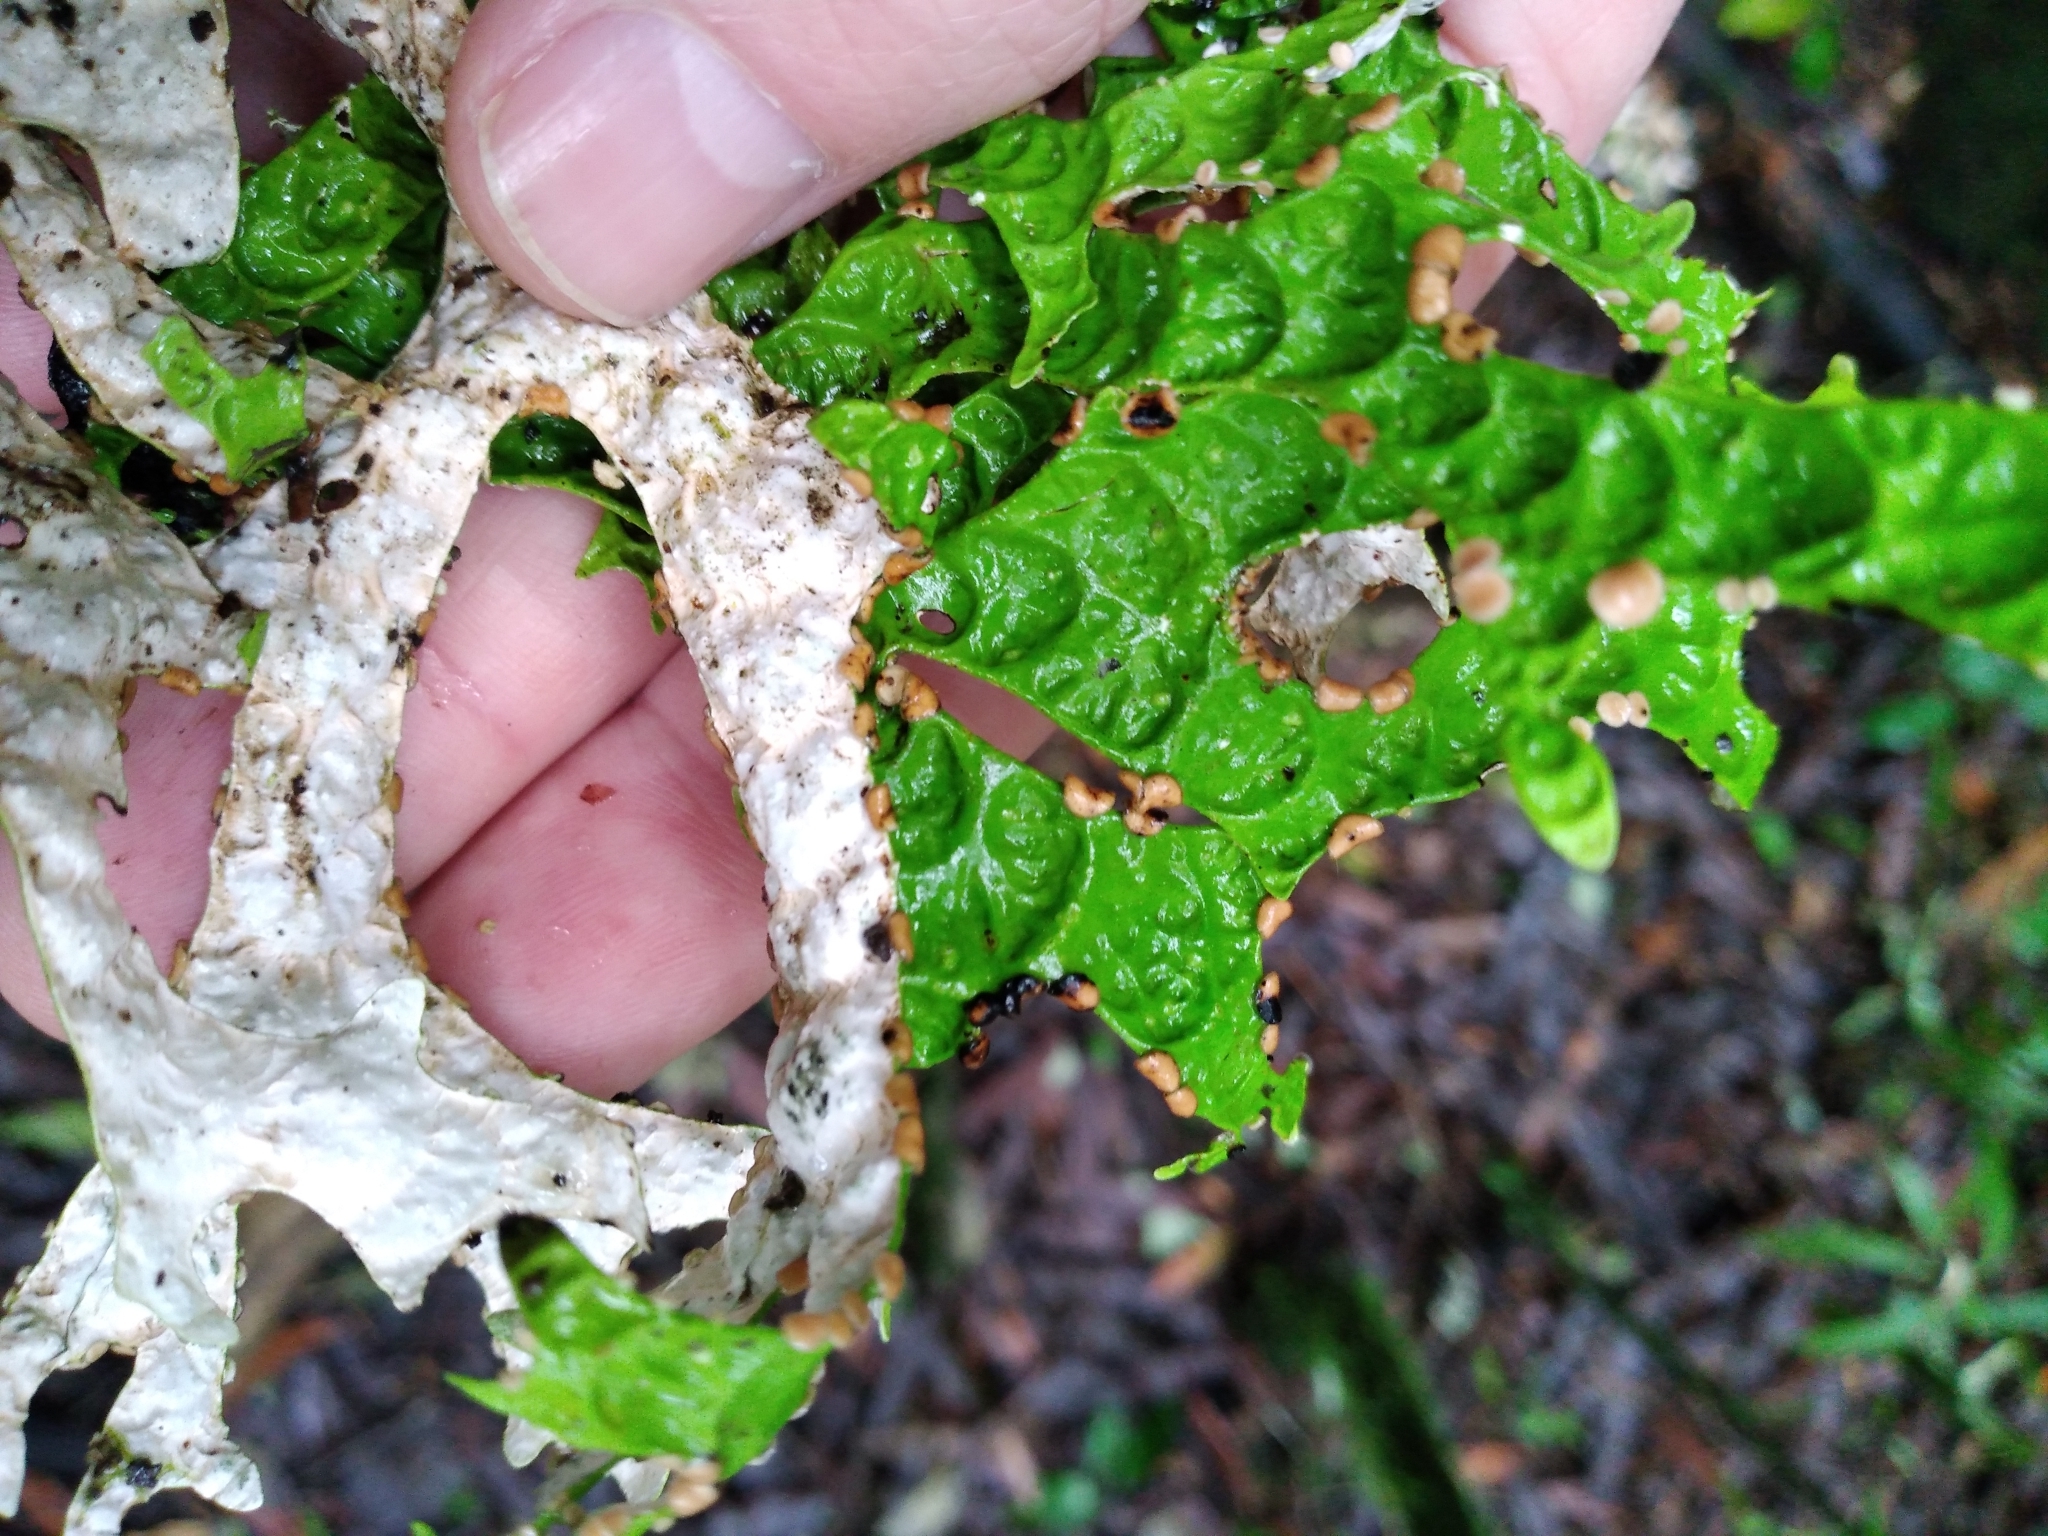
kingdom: Fungi
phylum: Ascomycota
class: Lecanoromycetes
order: Peltigerales
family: Lobariaceae
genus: Pseudocyphellaria
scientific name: Pseudocyphellaria rufovirescens
